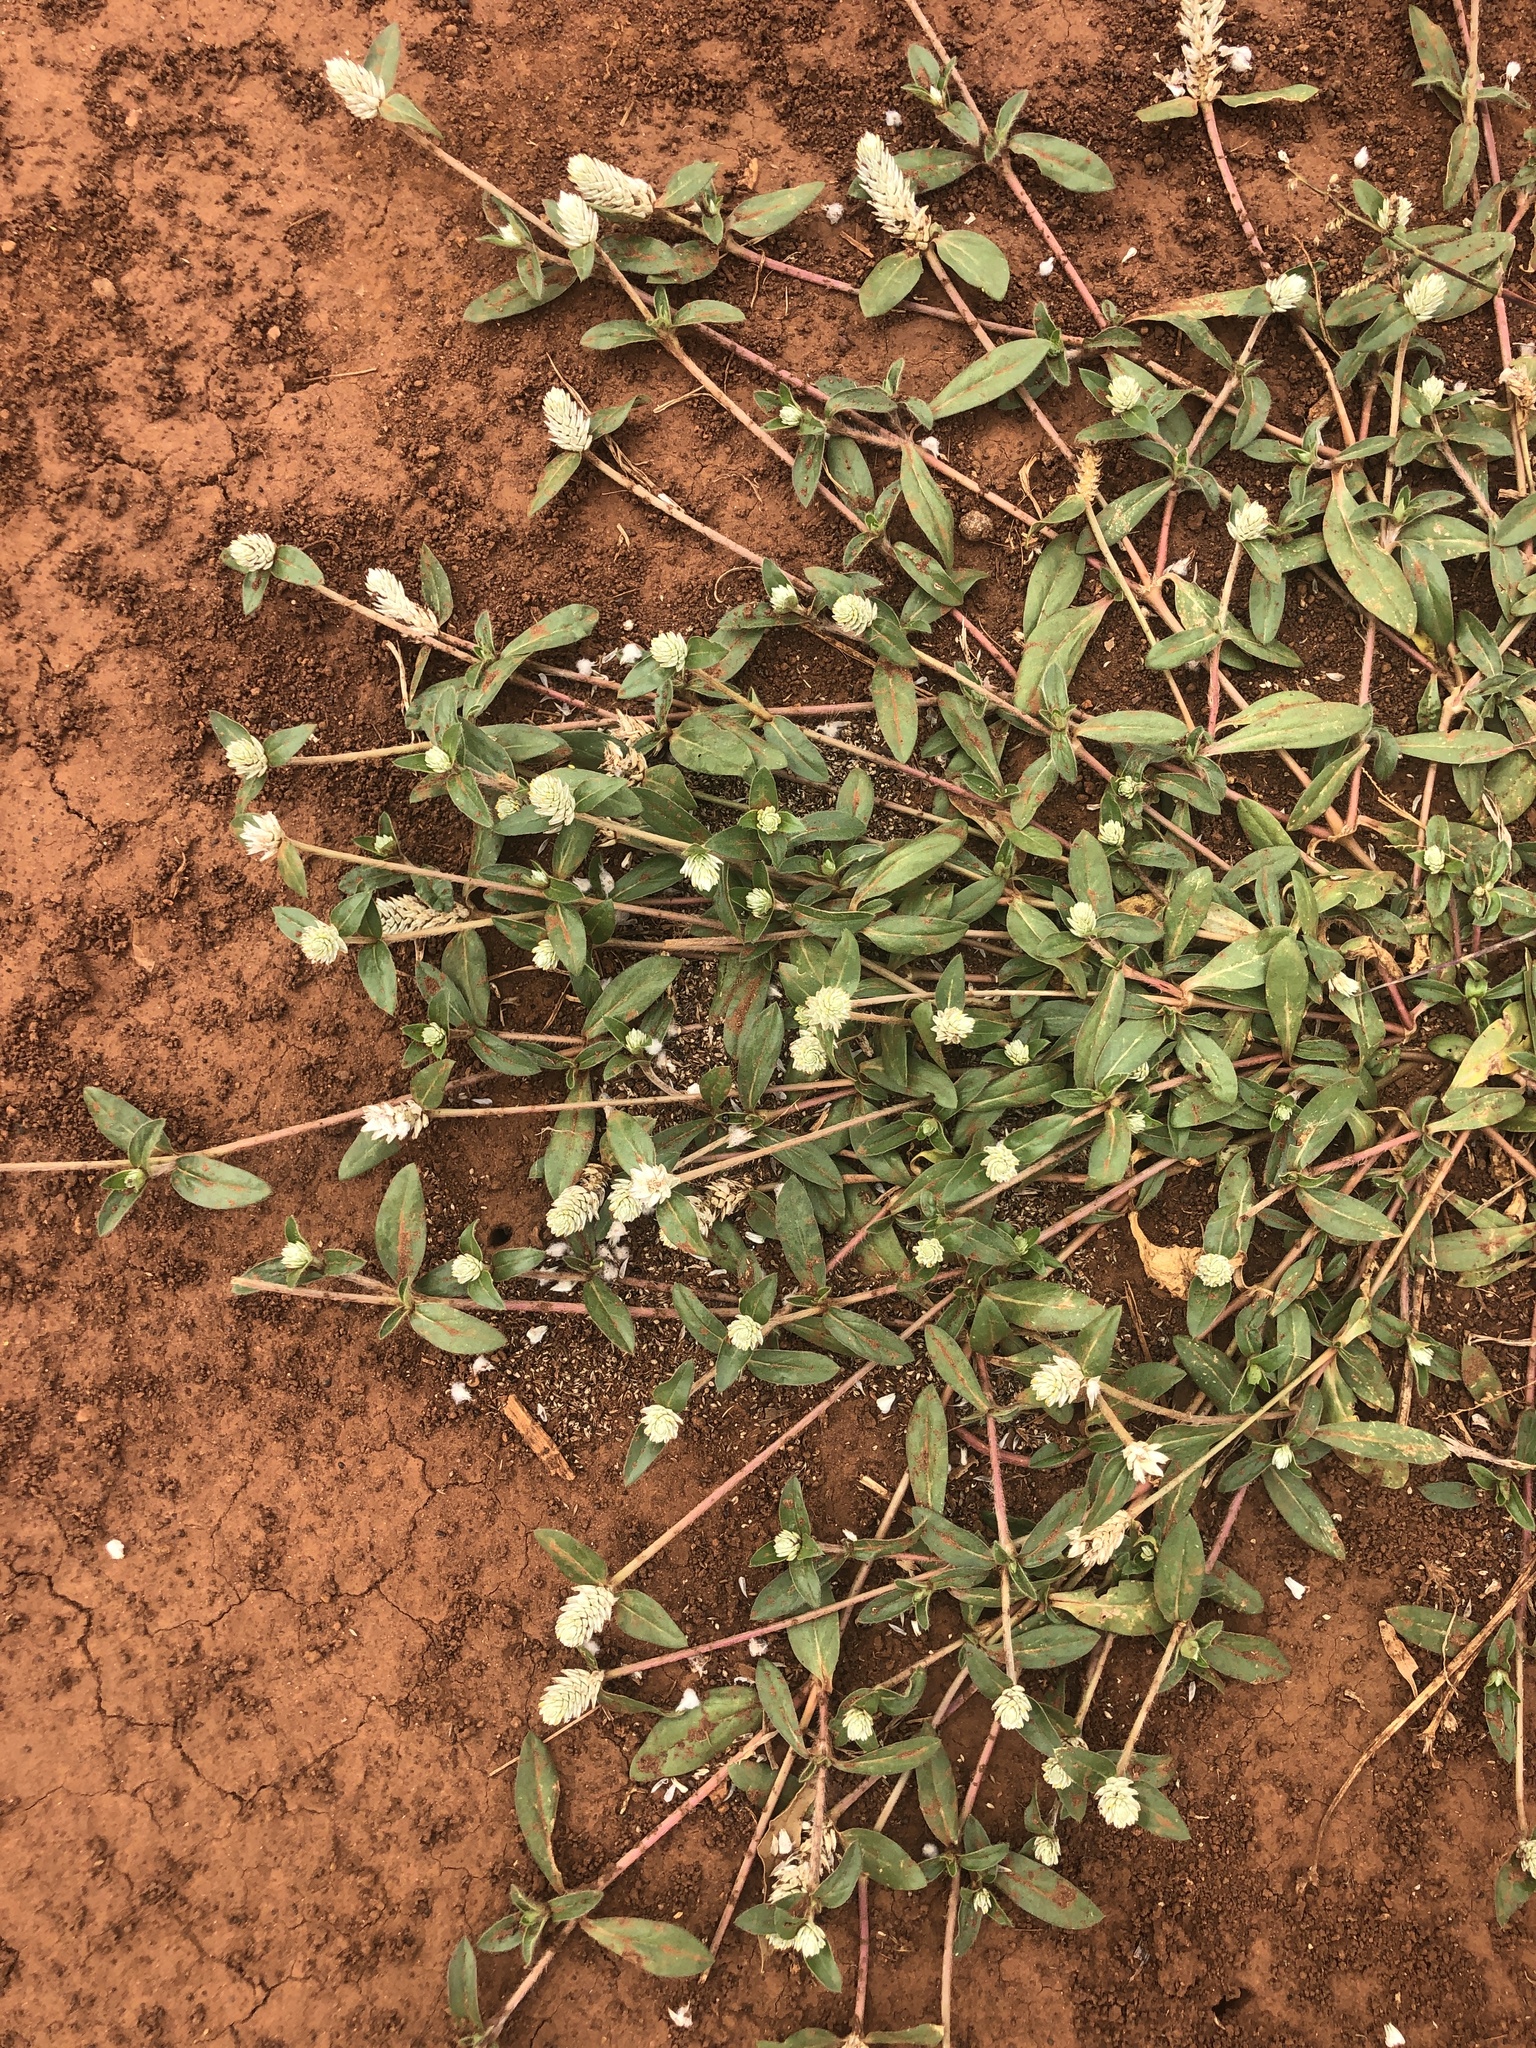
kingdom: Plantae
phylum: Tracheophyta
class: Magnoliopsida
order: Caryophyllales
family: Amaranthaceae
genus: Gomphrena
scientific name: Gomphrena celosioides
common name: Gomphrena-weed
